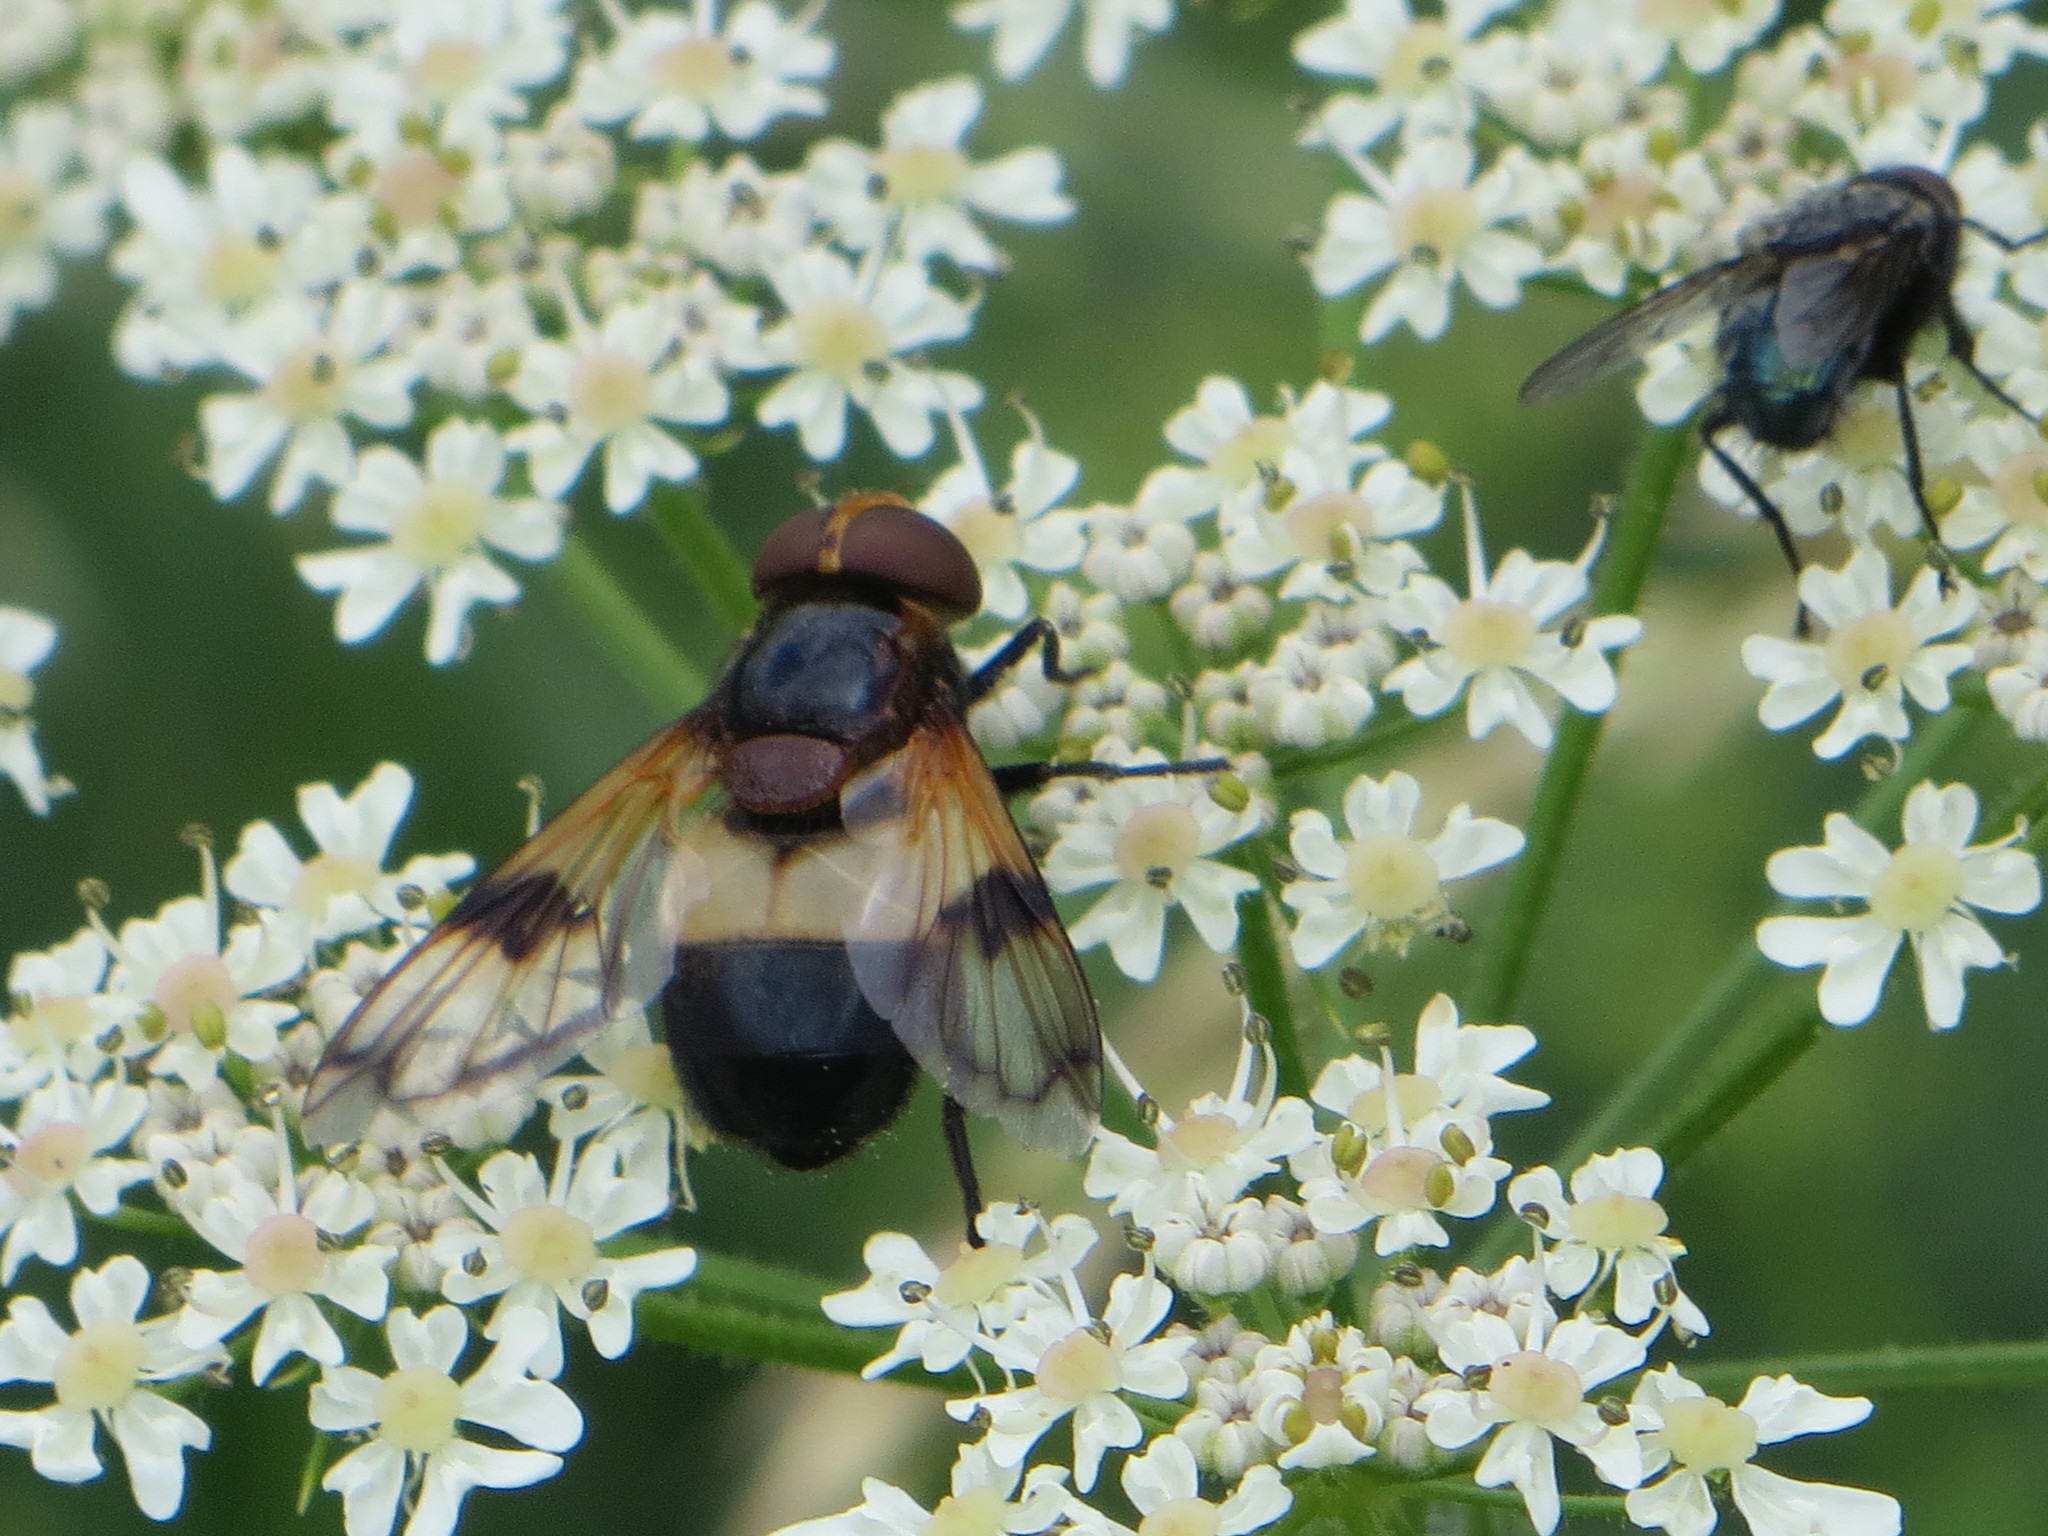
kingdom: Animalia
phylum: Arthropoda
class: Insecta
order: Diptera
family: Syrphidae
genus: Volucella
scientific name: Volucella pellucens
